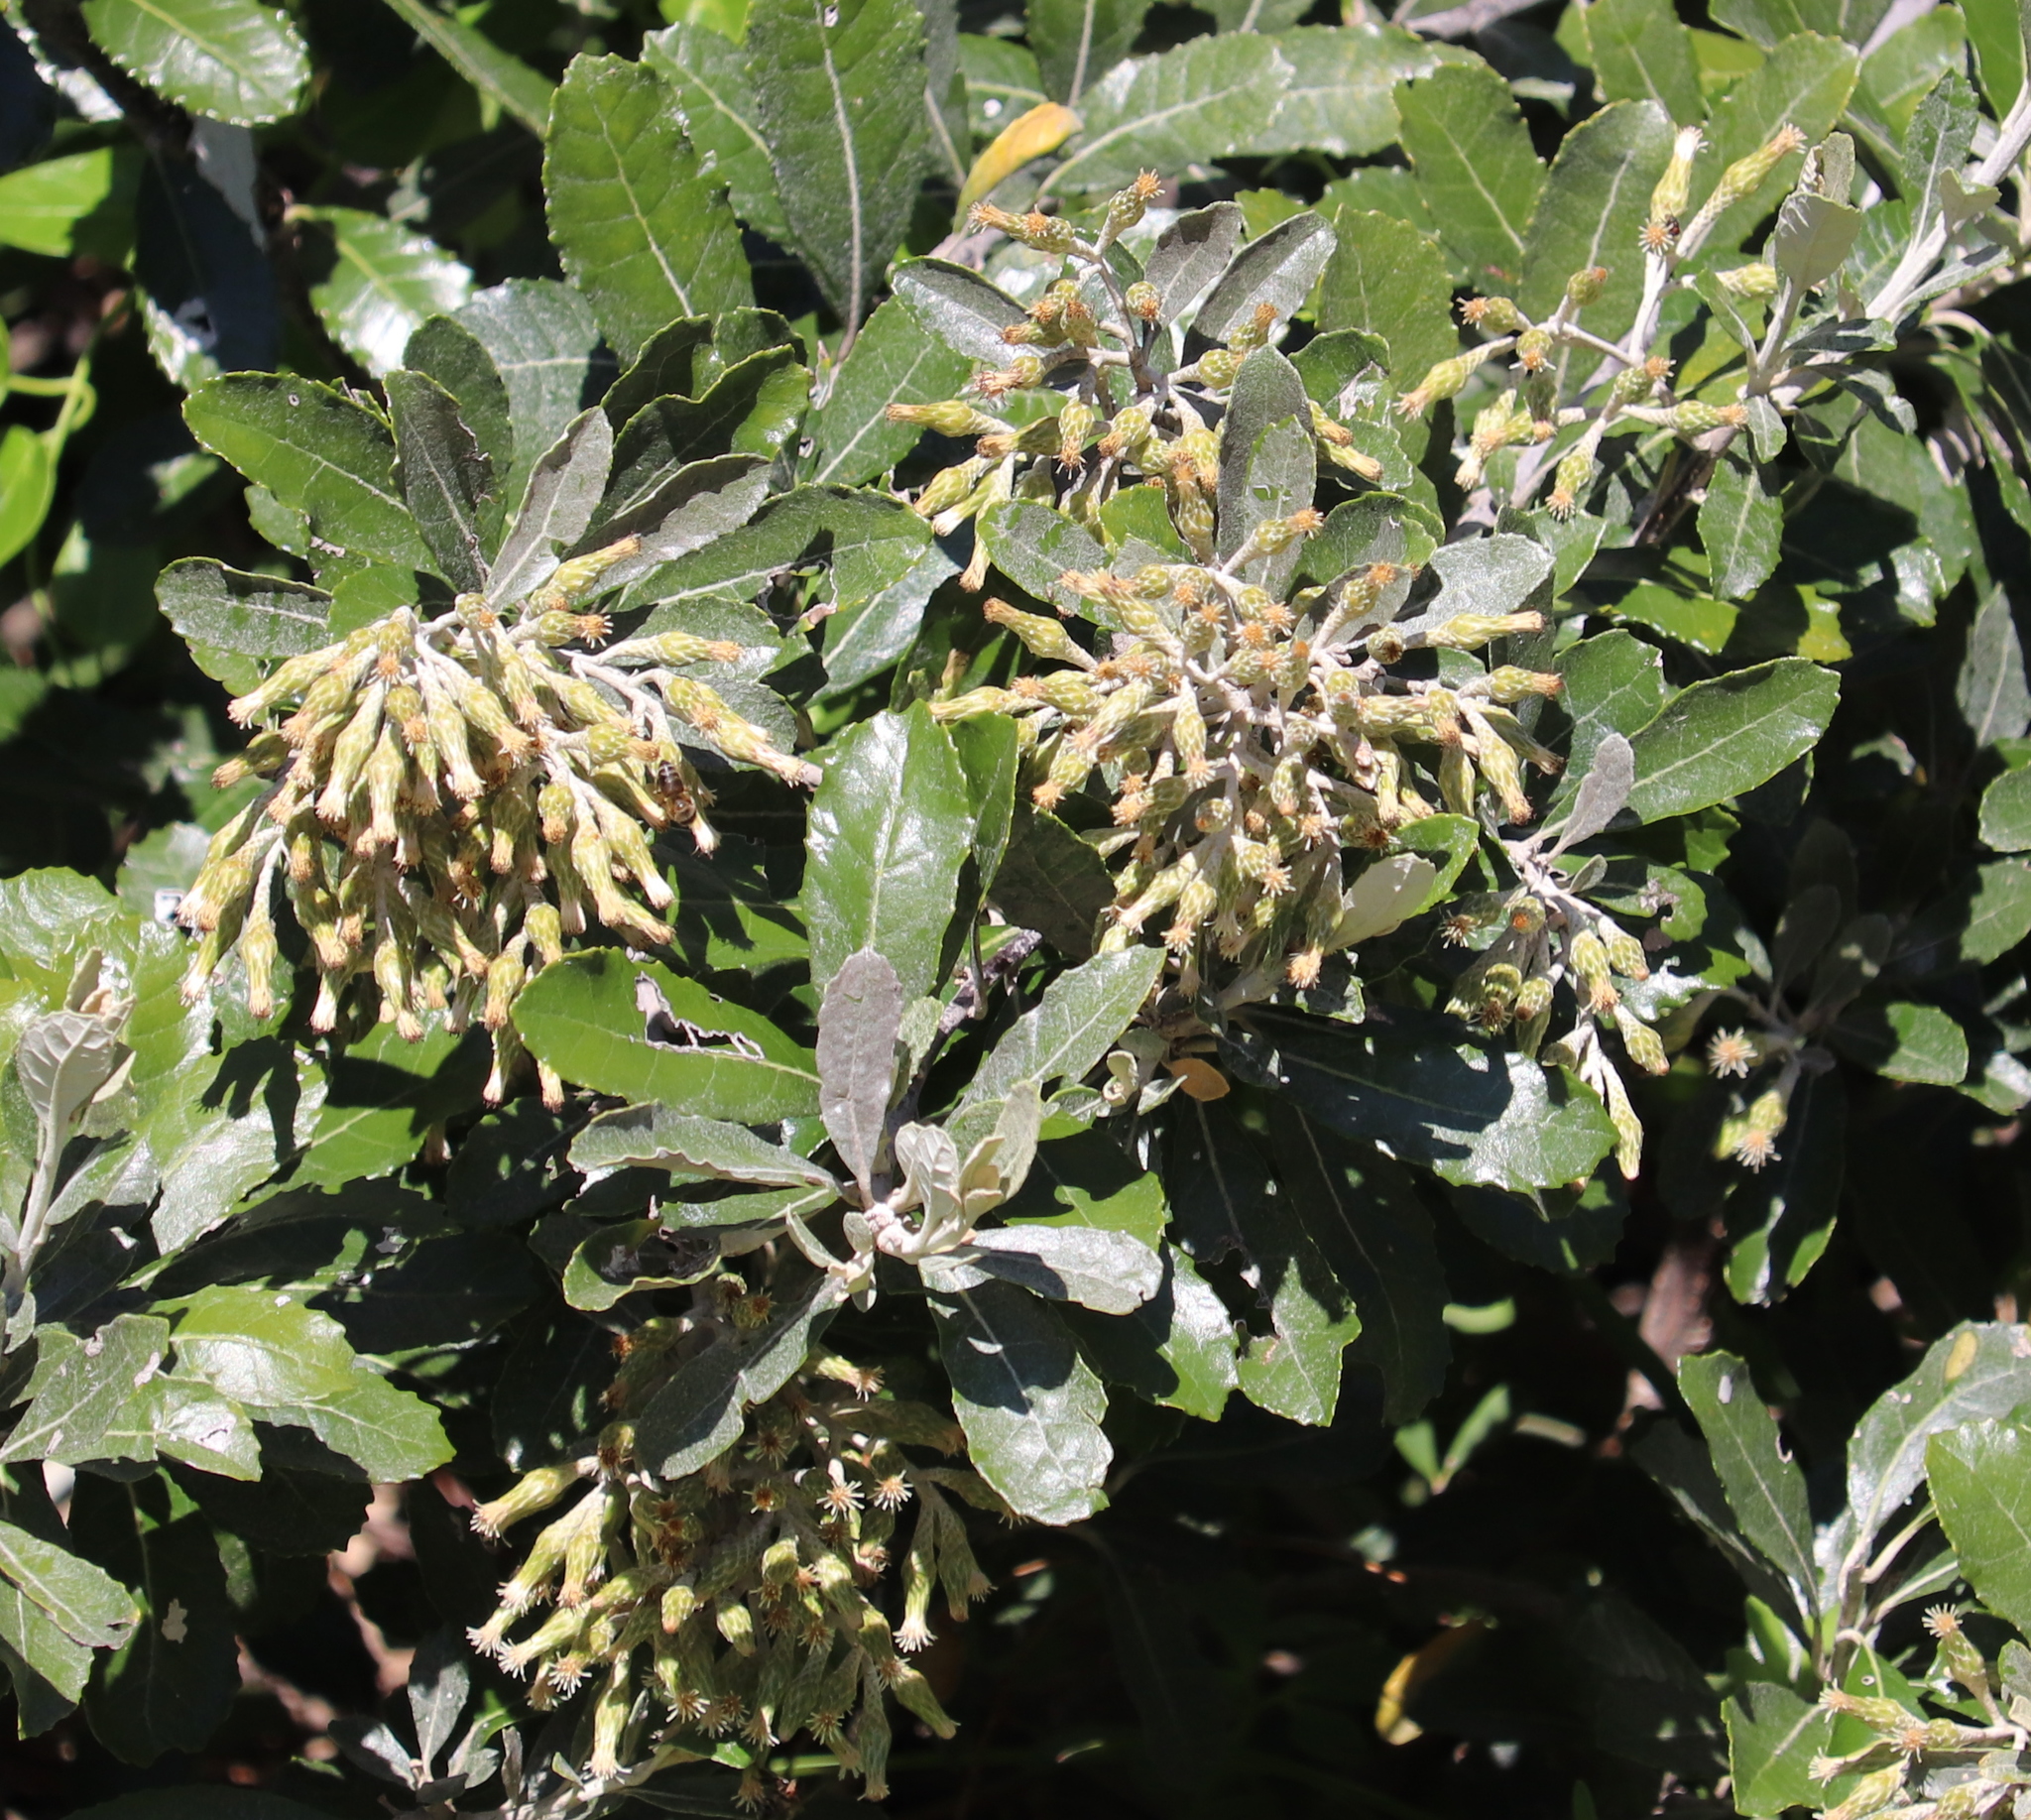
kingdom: Plantae
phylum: Tracheophyta
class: Magnoliopsida
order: Asterales
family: Asteraceae
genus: Brachylaena
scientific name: Brachylaena discolor
